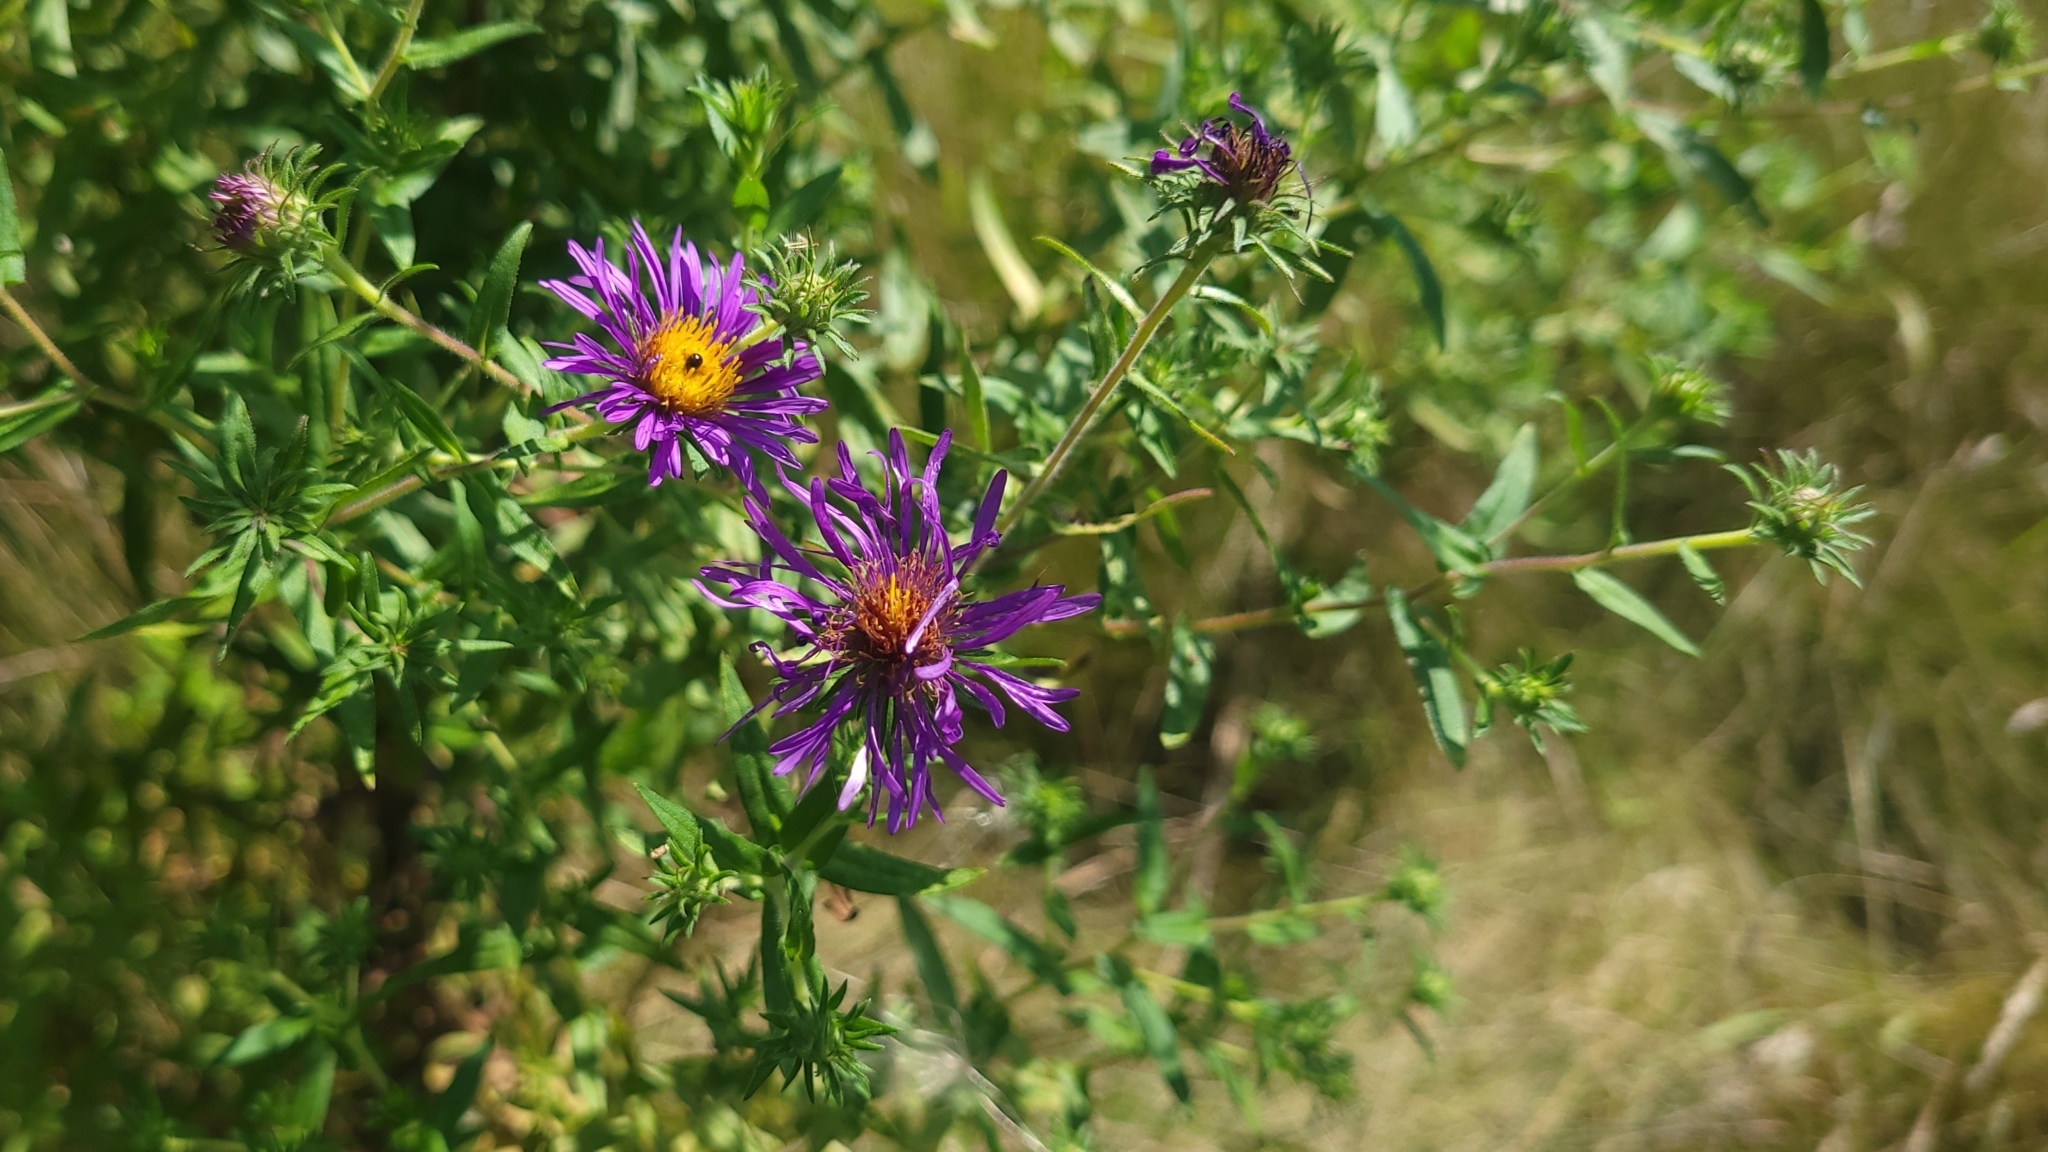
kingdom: Plantae
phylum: Tracheophyta
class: Magnoliopsida
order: Asterales
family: Asteraceae
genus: Symphyotrichum
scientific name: Symphyotrichum novae-angliae
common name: Michaelmas daisy
